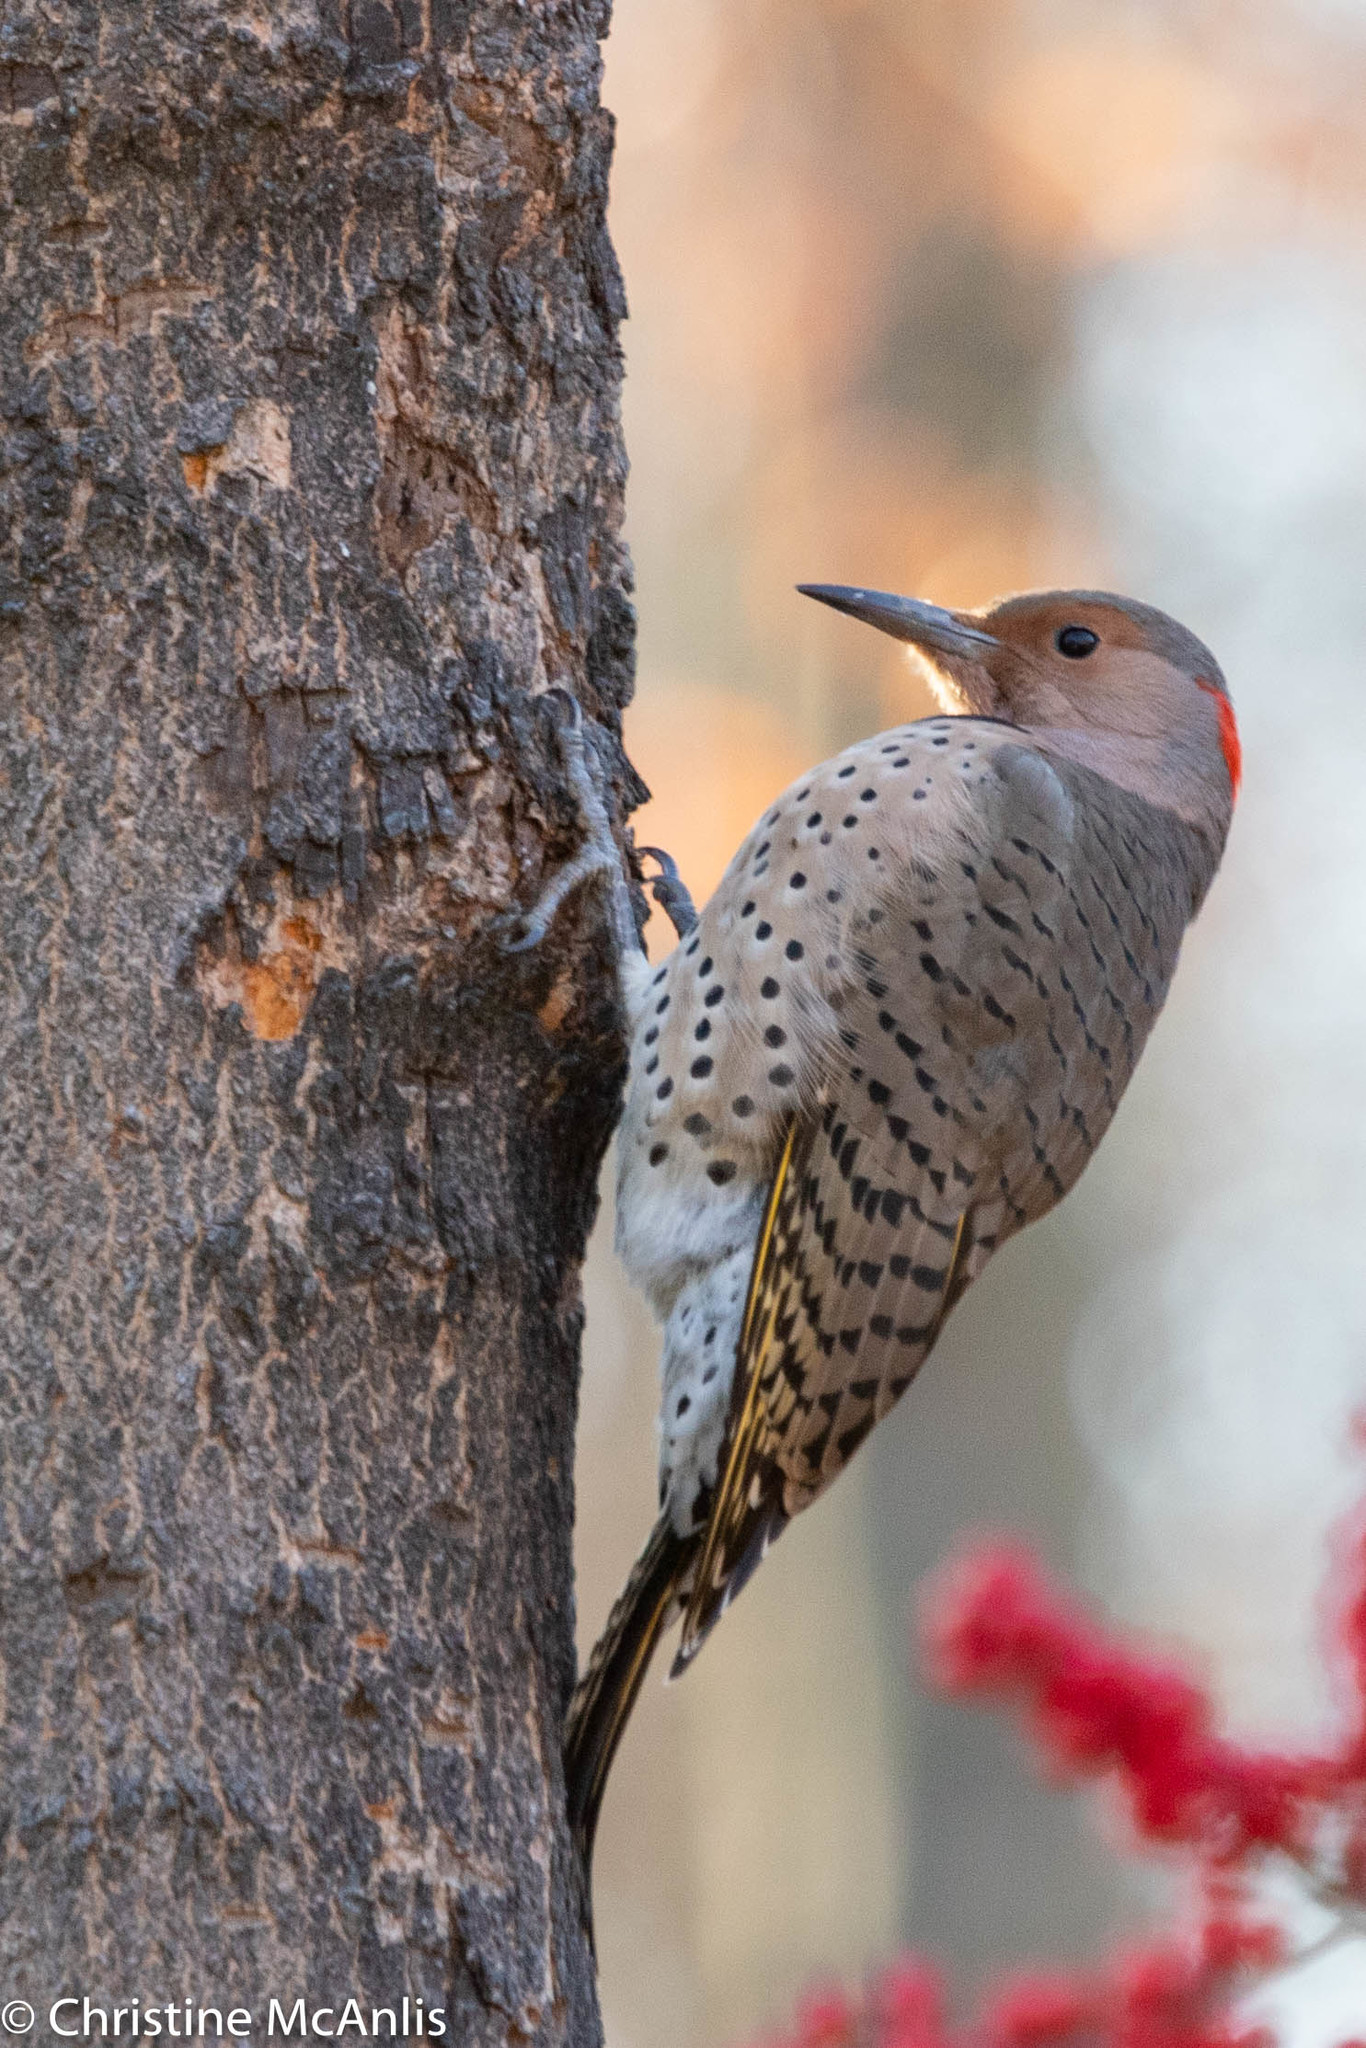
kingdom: Animalia
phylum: Chordata
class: Aves
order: Piciformes
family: Picidae
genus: Colaptes
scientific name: Colaptes auratus
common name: Northern flicker
